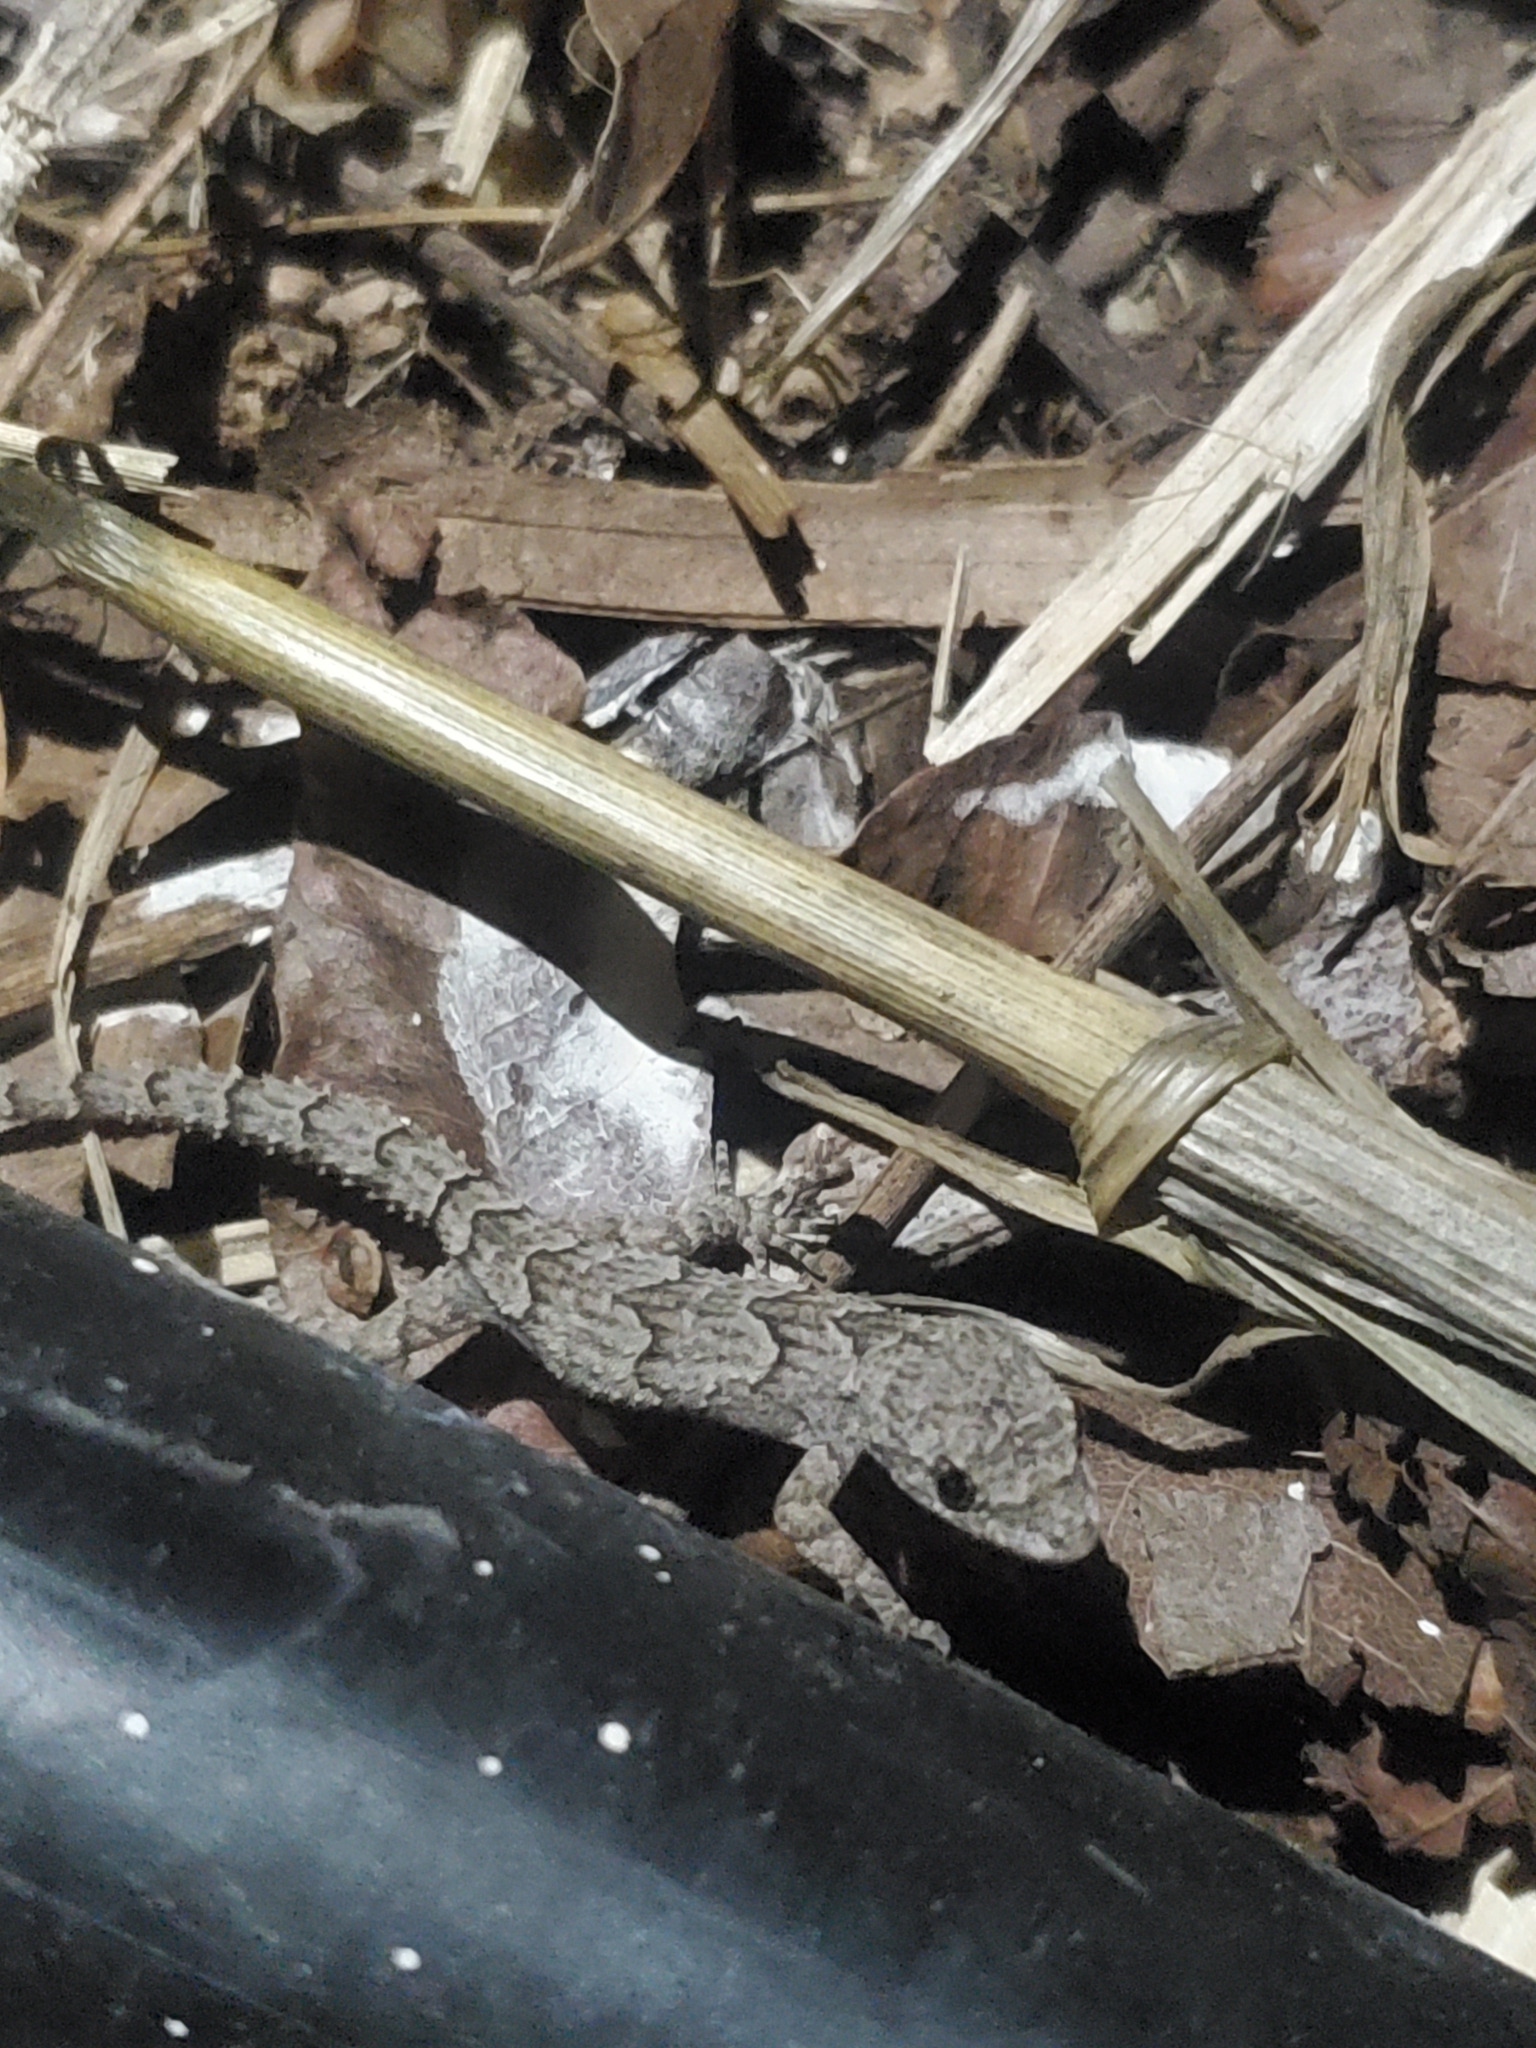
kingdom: Animalia
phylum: Chordata
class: Squamata
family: Gekkonidae
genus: Mediodactylus
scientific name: Mediodactylus orientalis
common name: Mediterranean thin-toed gecko
